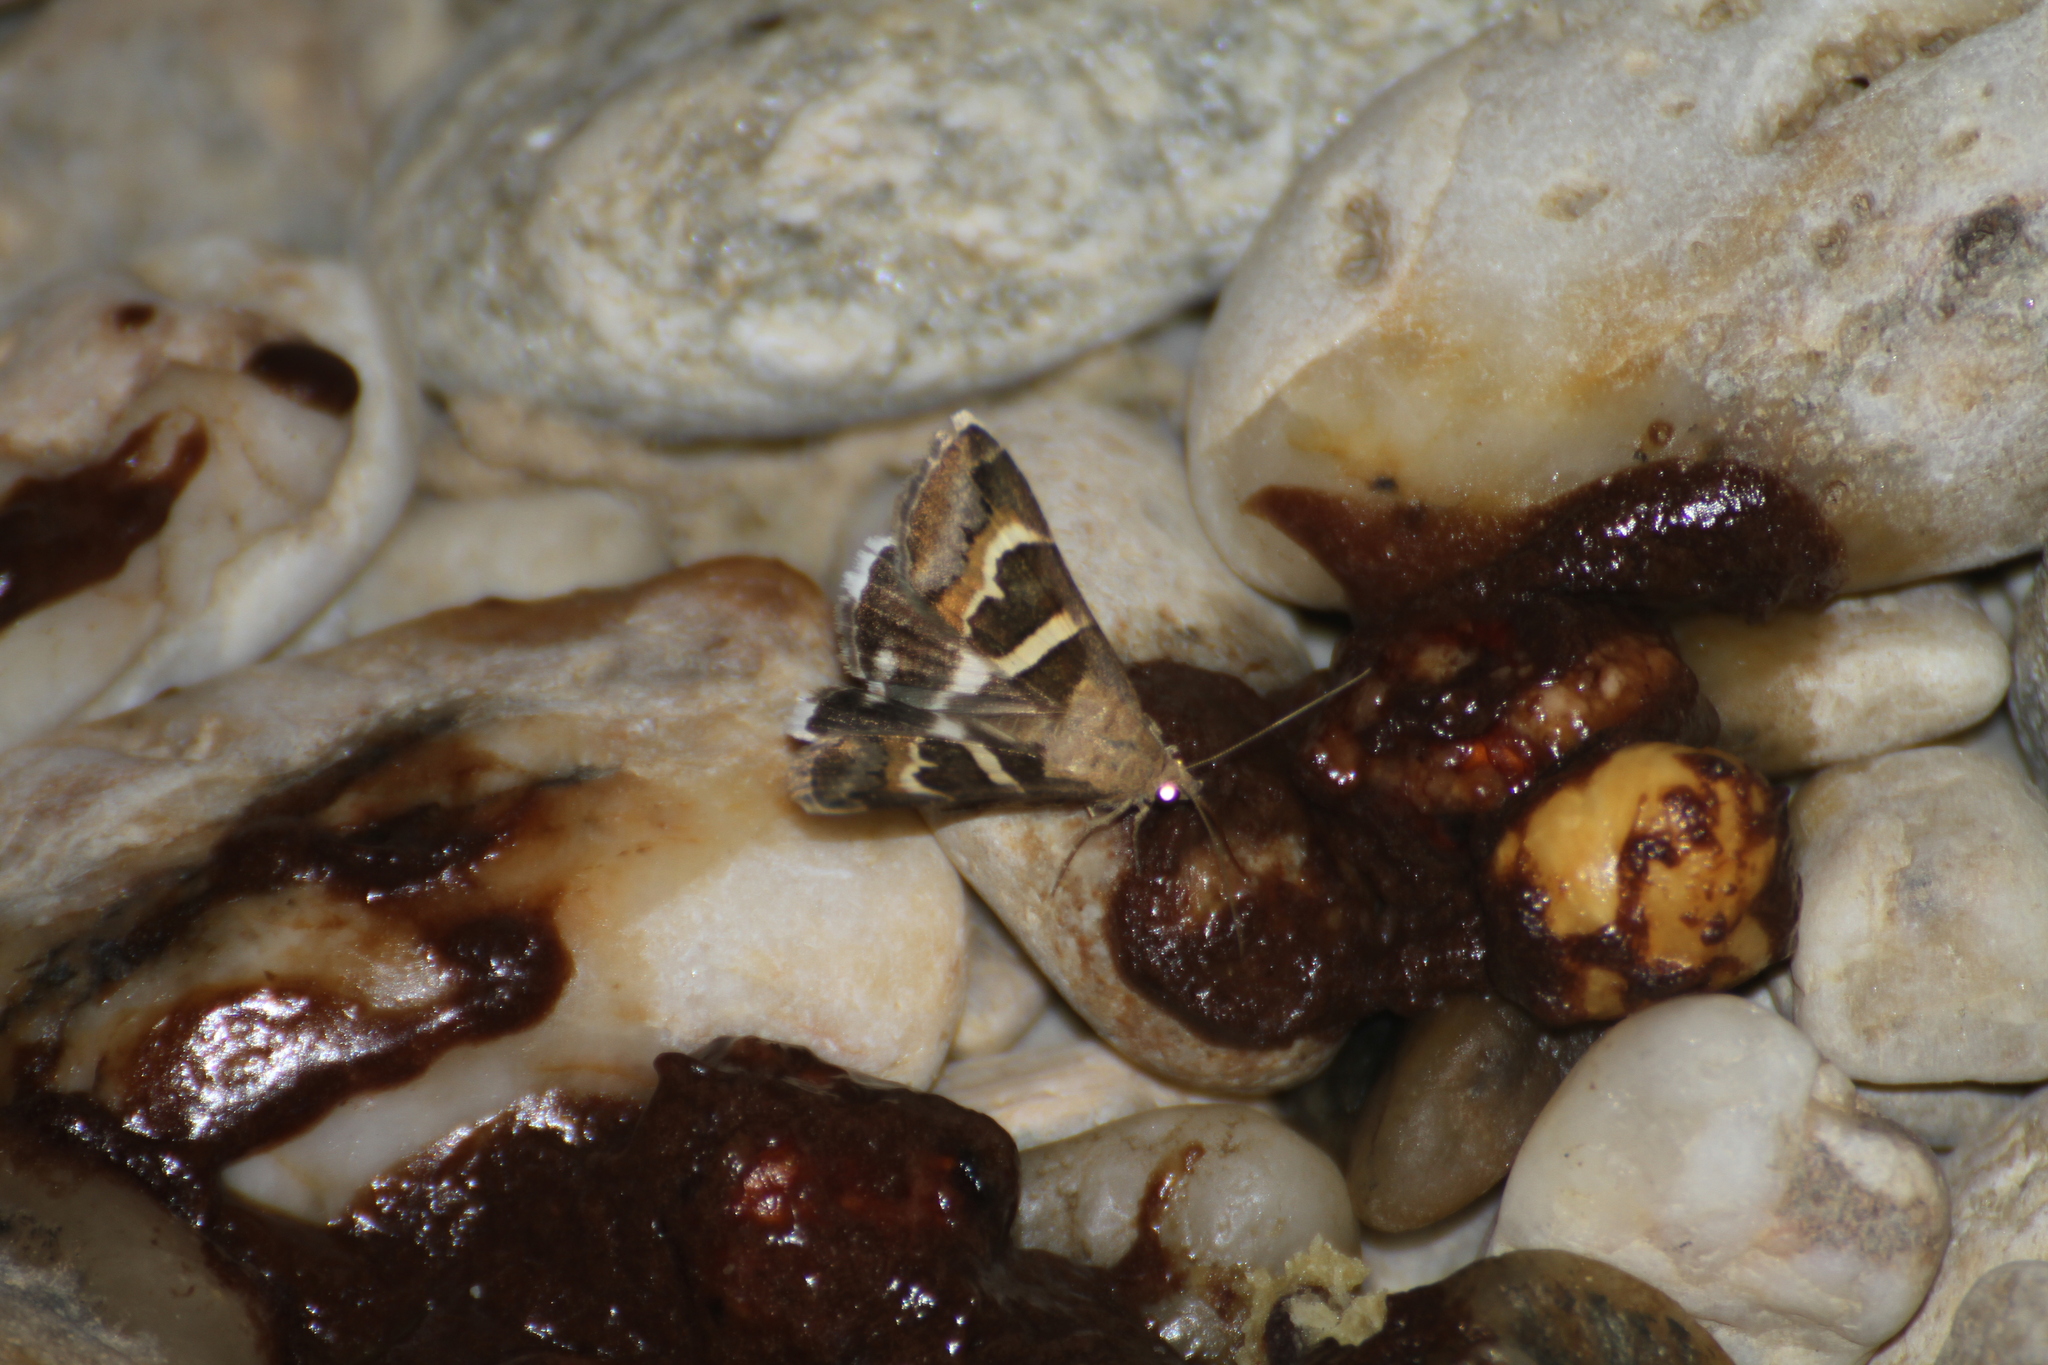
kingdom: Animalia
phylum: Arthropoda
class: Insecta
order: Lepidoptera
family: Erebidae
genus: Grammodes
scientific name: Grammodes stolida
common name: Geometrician
